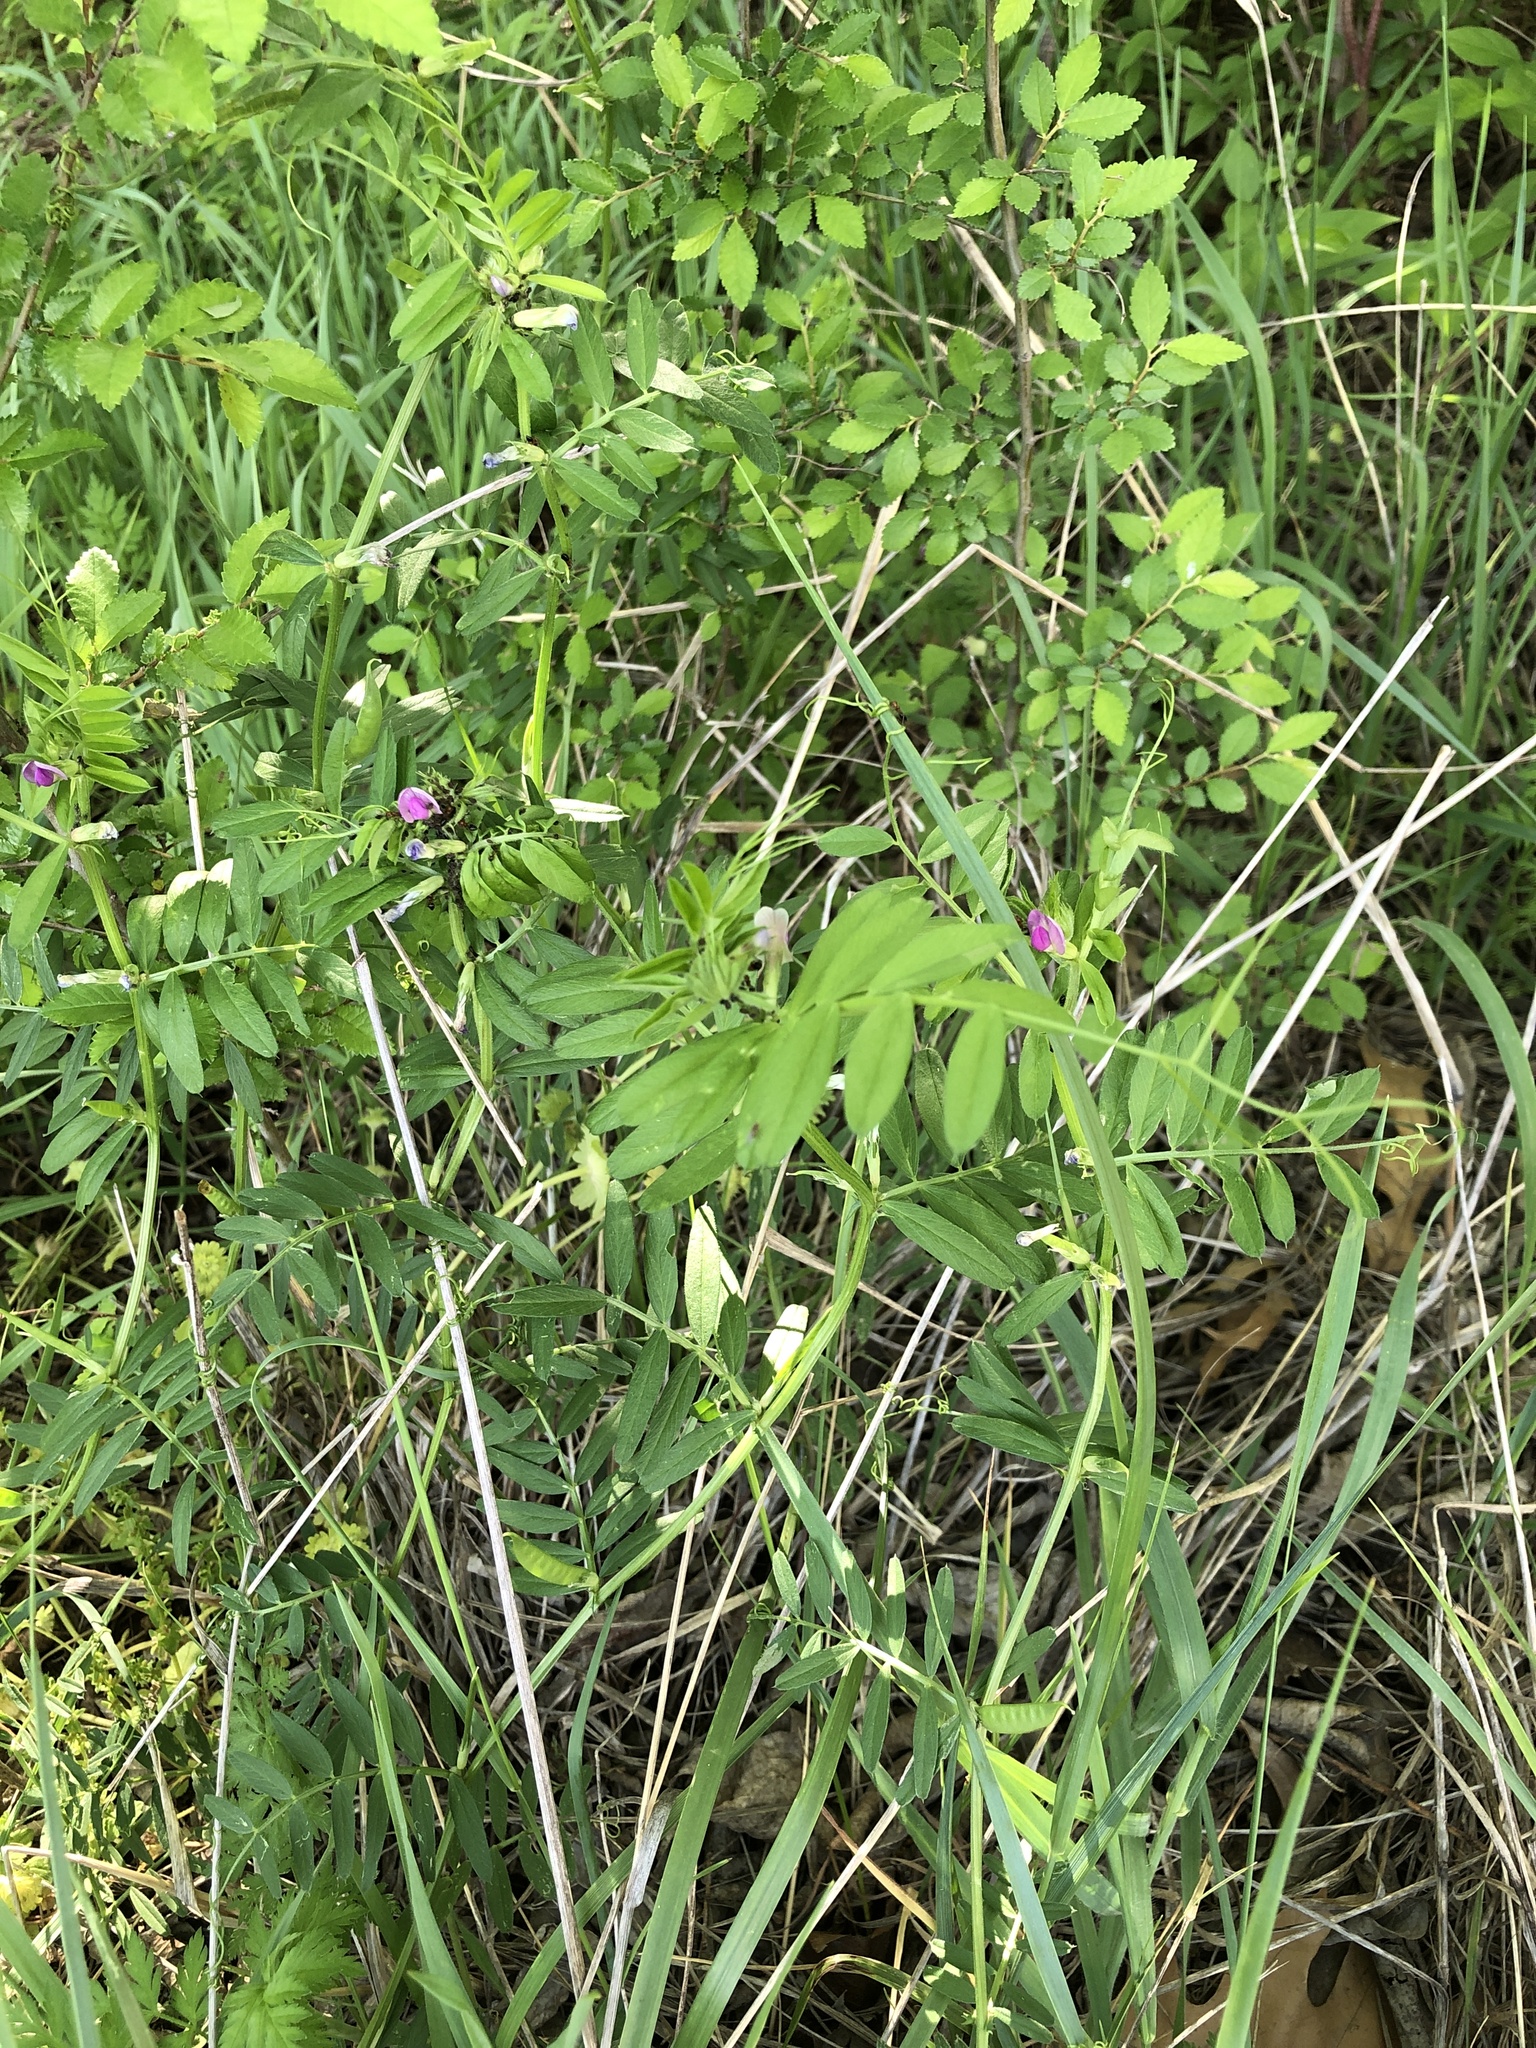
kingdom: Plantae
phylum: Tracheophyta
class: Magnoliopsida
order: Fabales
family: Fabaceae
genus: Vicia
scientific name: Vicia sativa
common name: Garden vetch
